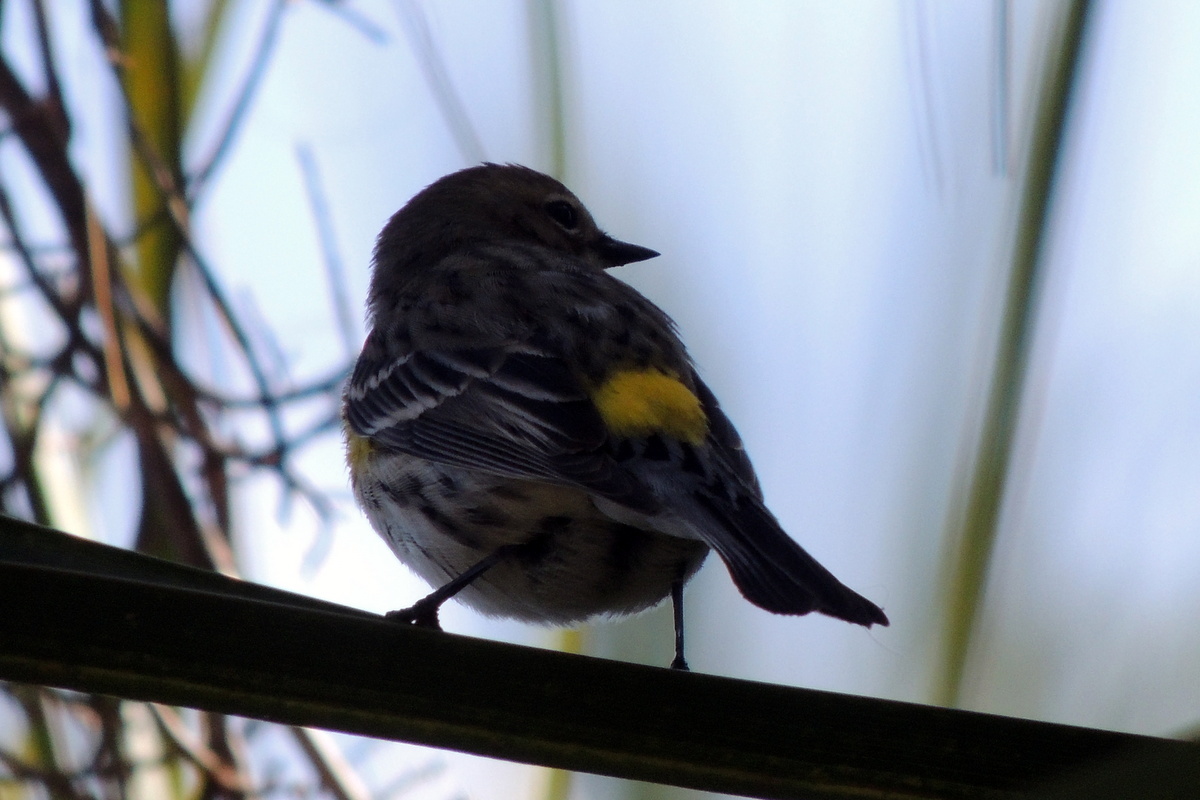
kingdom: Animalia
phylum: Chordata
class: Aves
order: Passeriformes
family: Parulidae
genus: Setophaga
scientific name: Setophaga coronata
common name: Myrtle warbler
